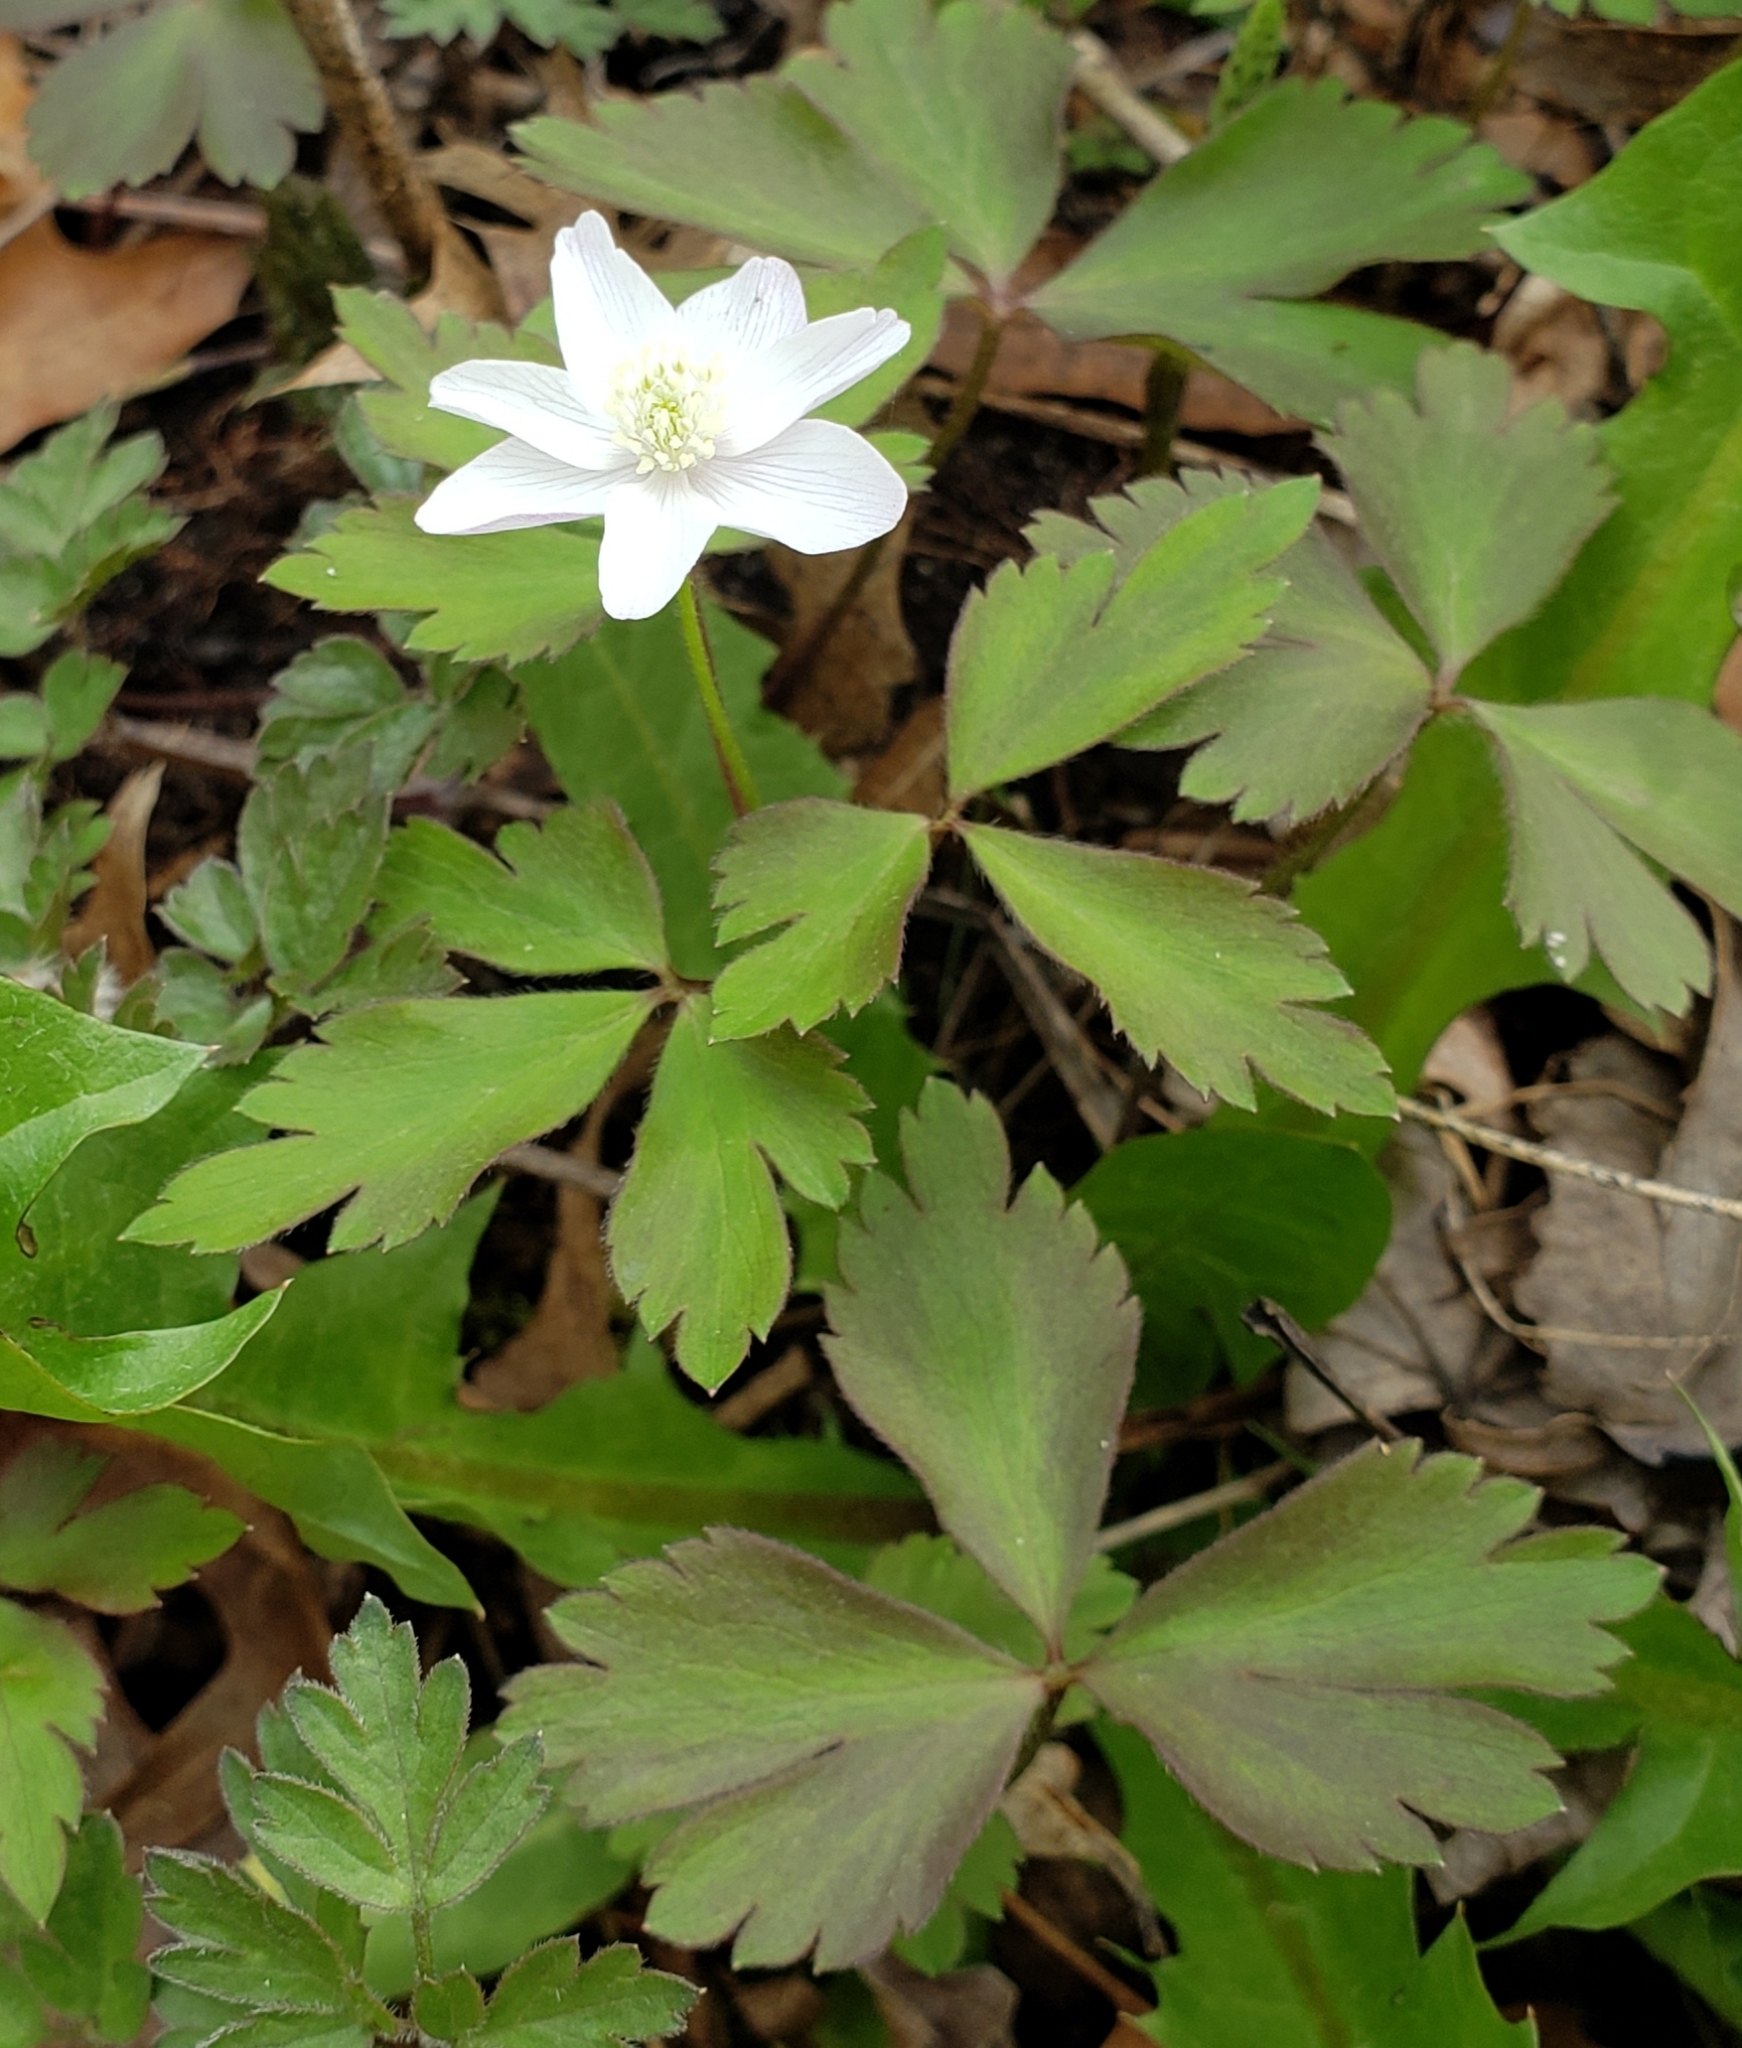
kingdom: Plantae
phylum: Tracheophyta
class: Magnoliopsida
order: Ranunculales
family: Ranunculaceae
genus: Anemone
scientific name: Anemone quinquefolia
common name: Wood anemone
